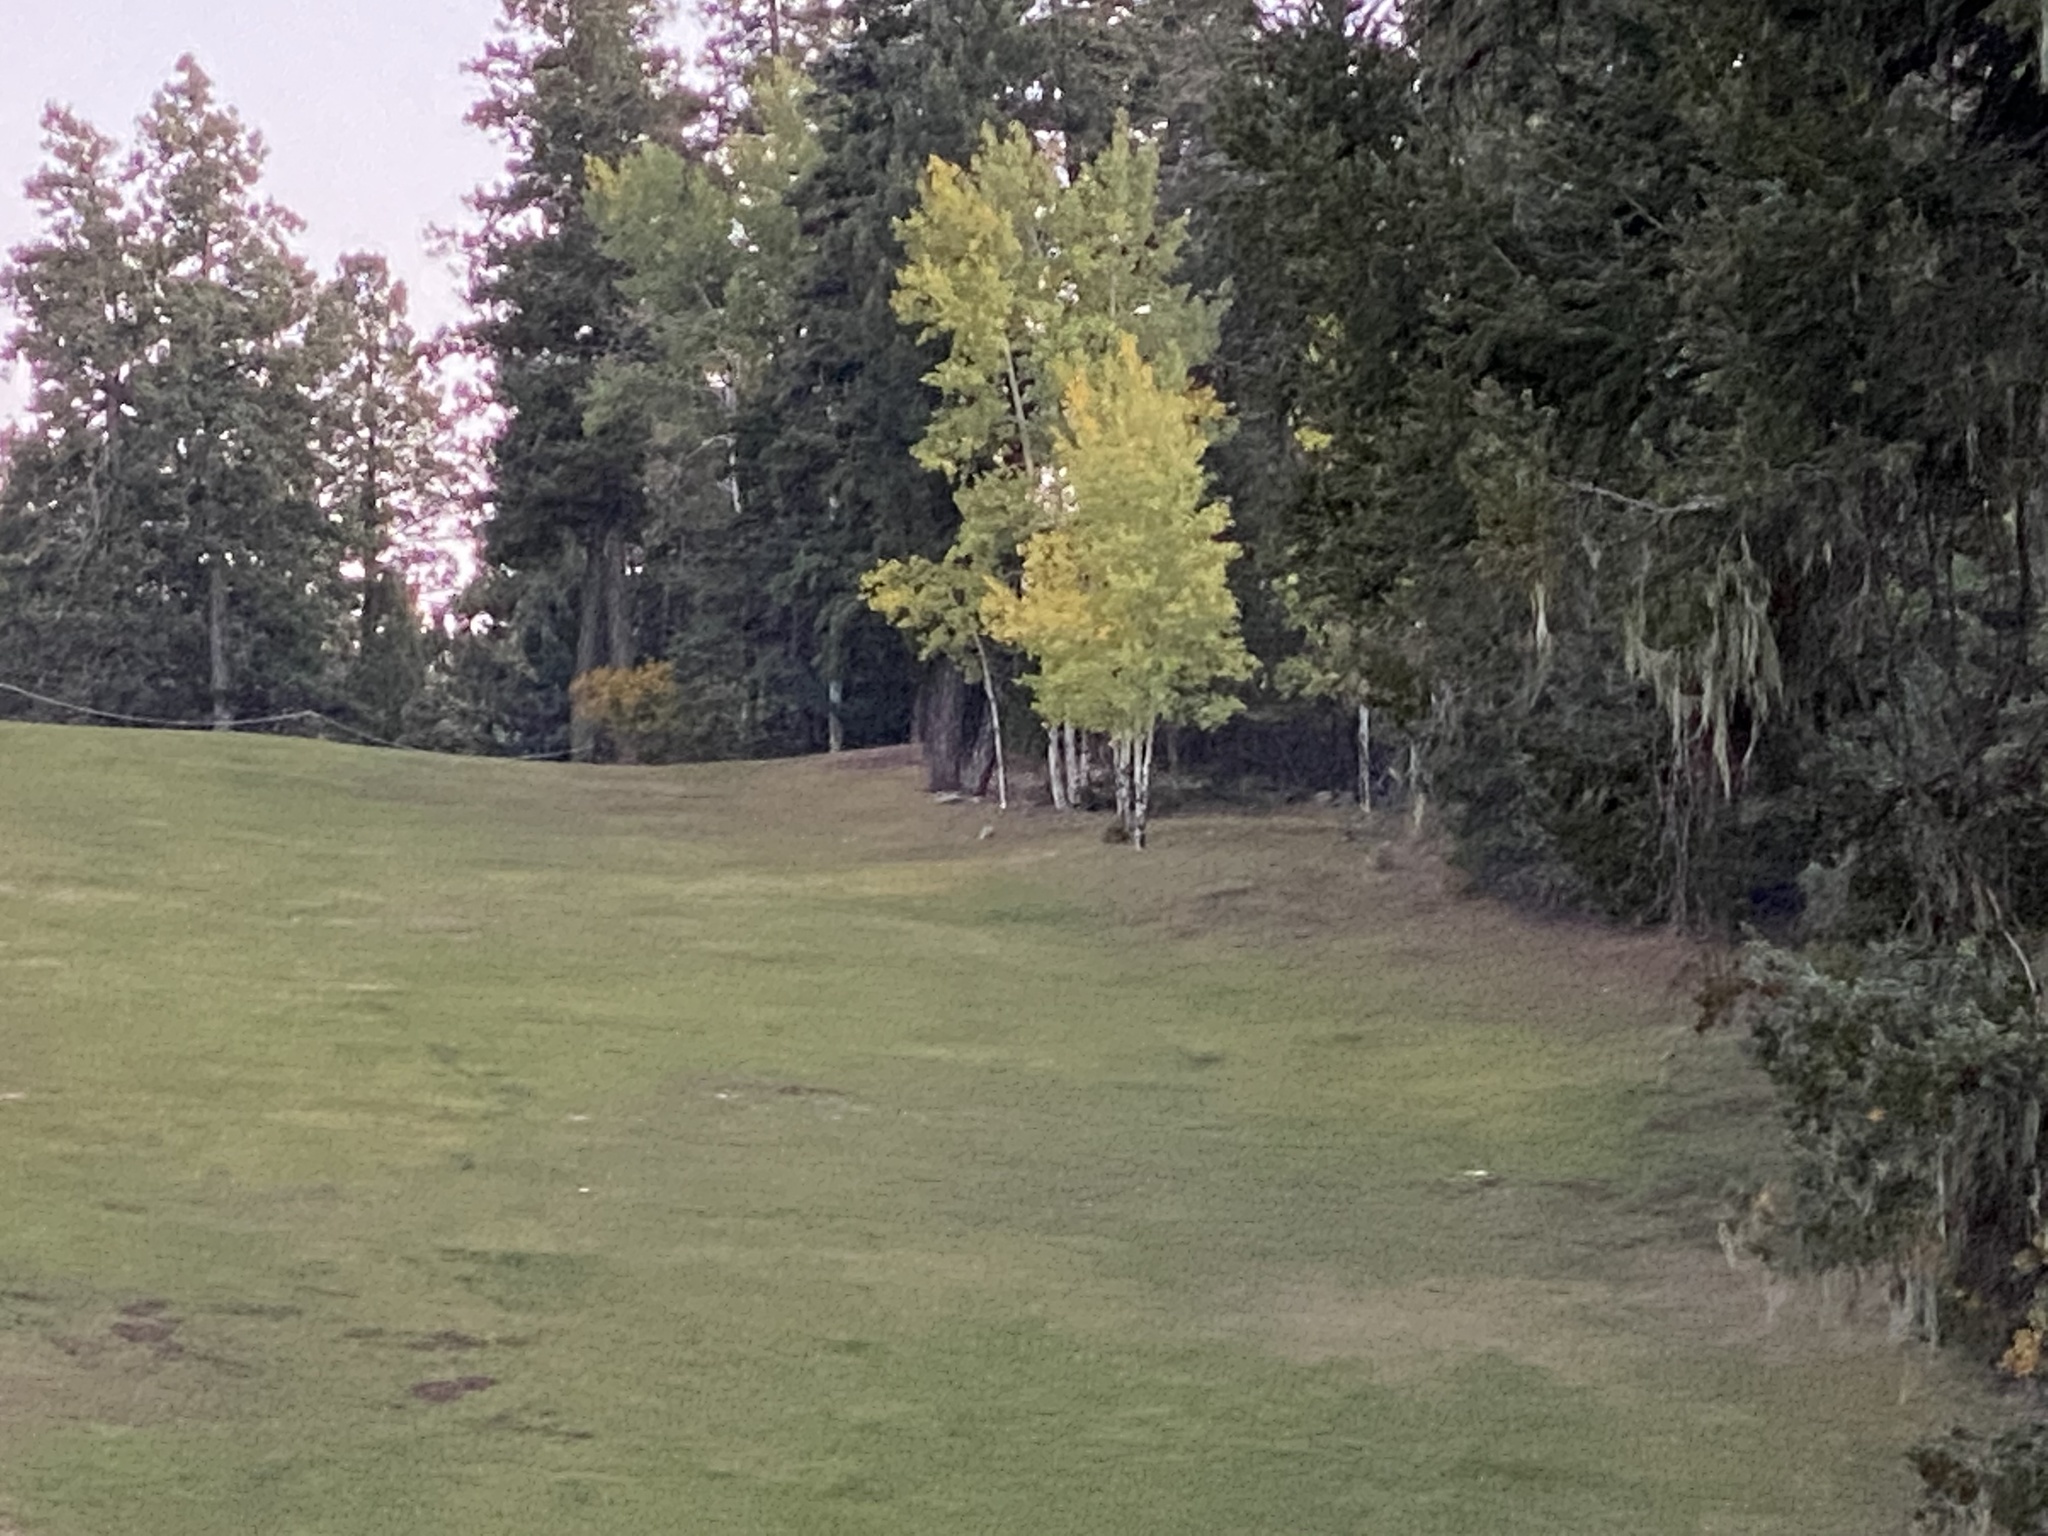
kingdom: Animalia
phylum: Chordata
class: Mammalia
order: Carnivora
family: Mephitidae
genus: Mephitis
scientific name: Mephitis mephitis
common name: Striped skunk
